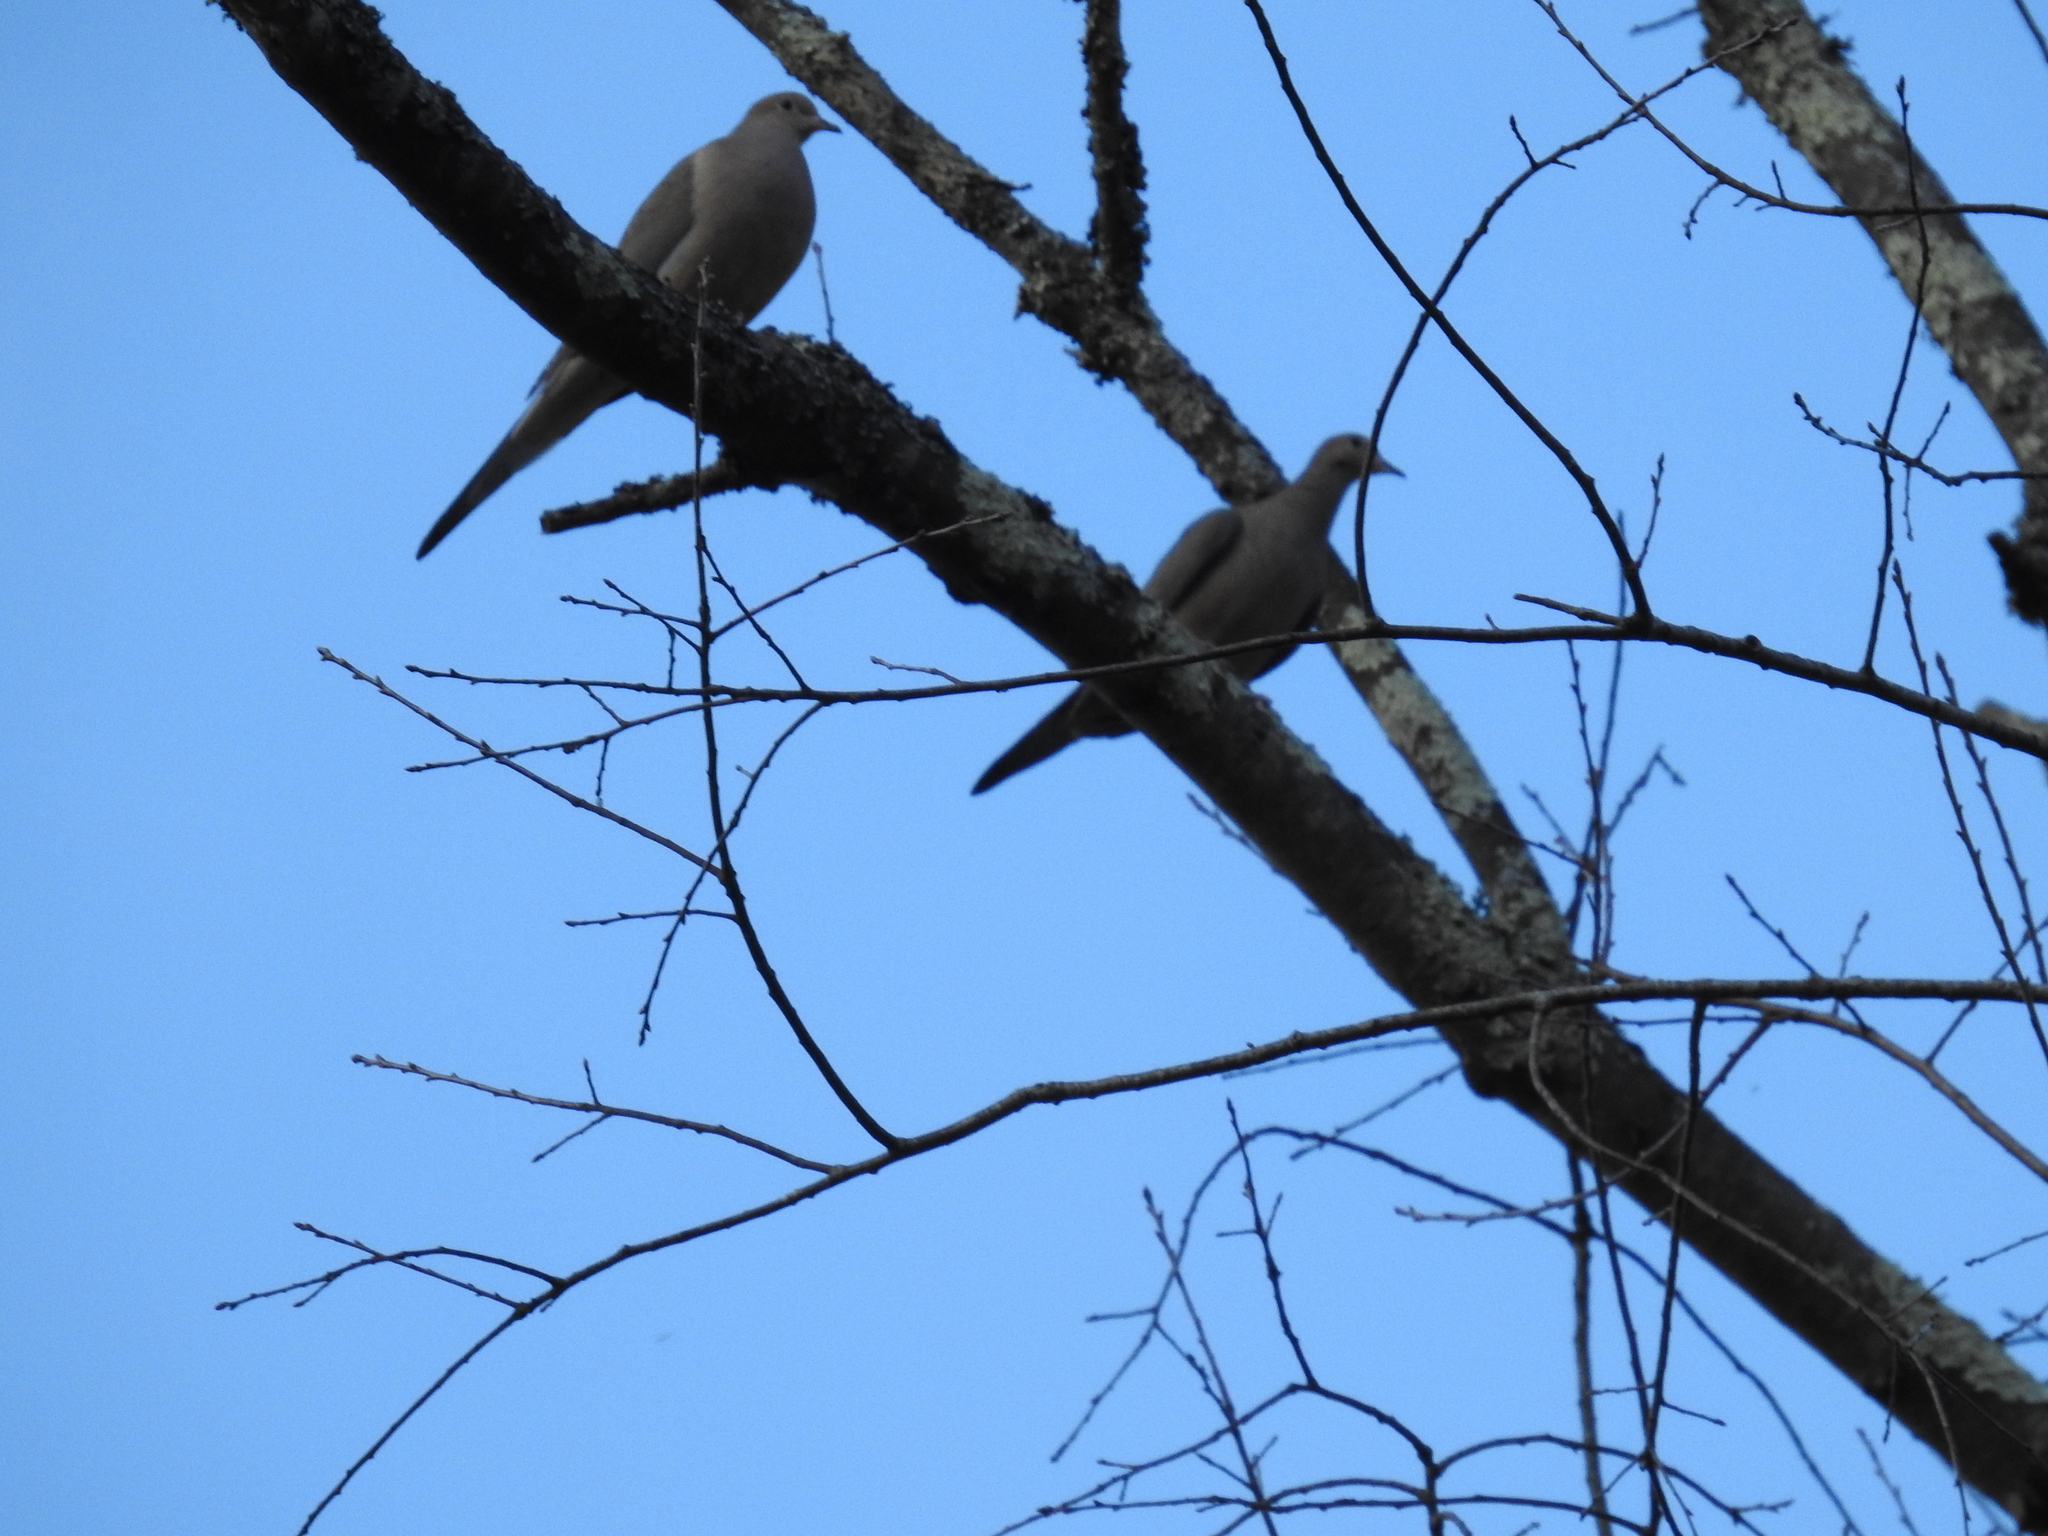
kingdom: Animalia
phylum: Chordata
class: Aves
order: Columbiformes
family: Columbidae
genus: Zenaida
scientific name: Zenaida macroura
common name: Mourning dove
